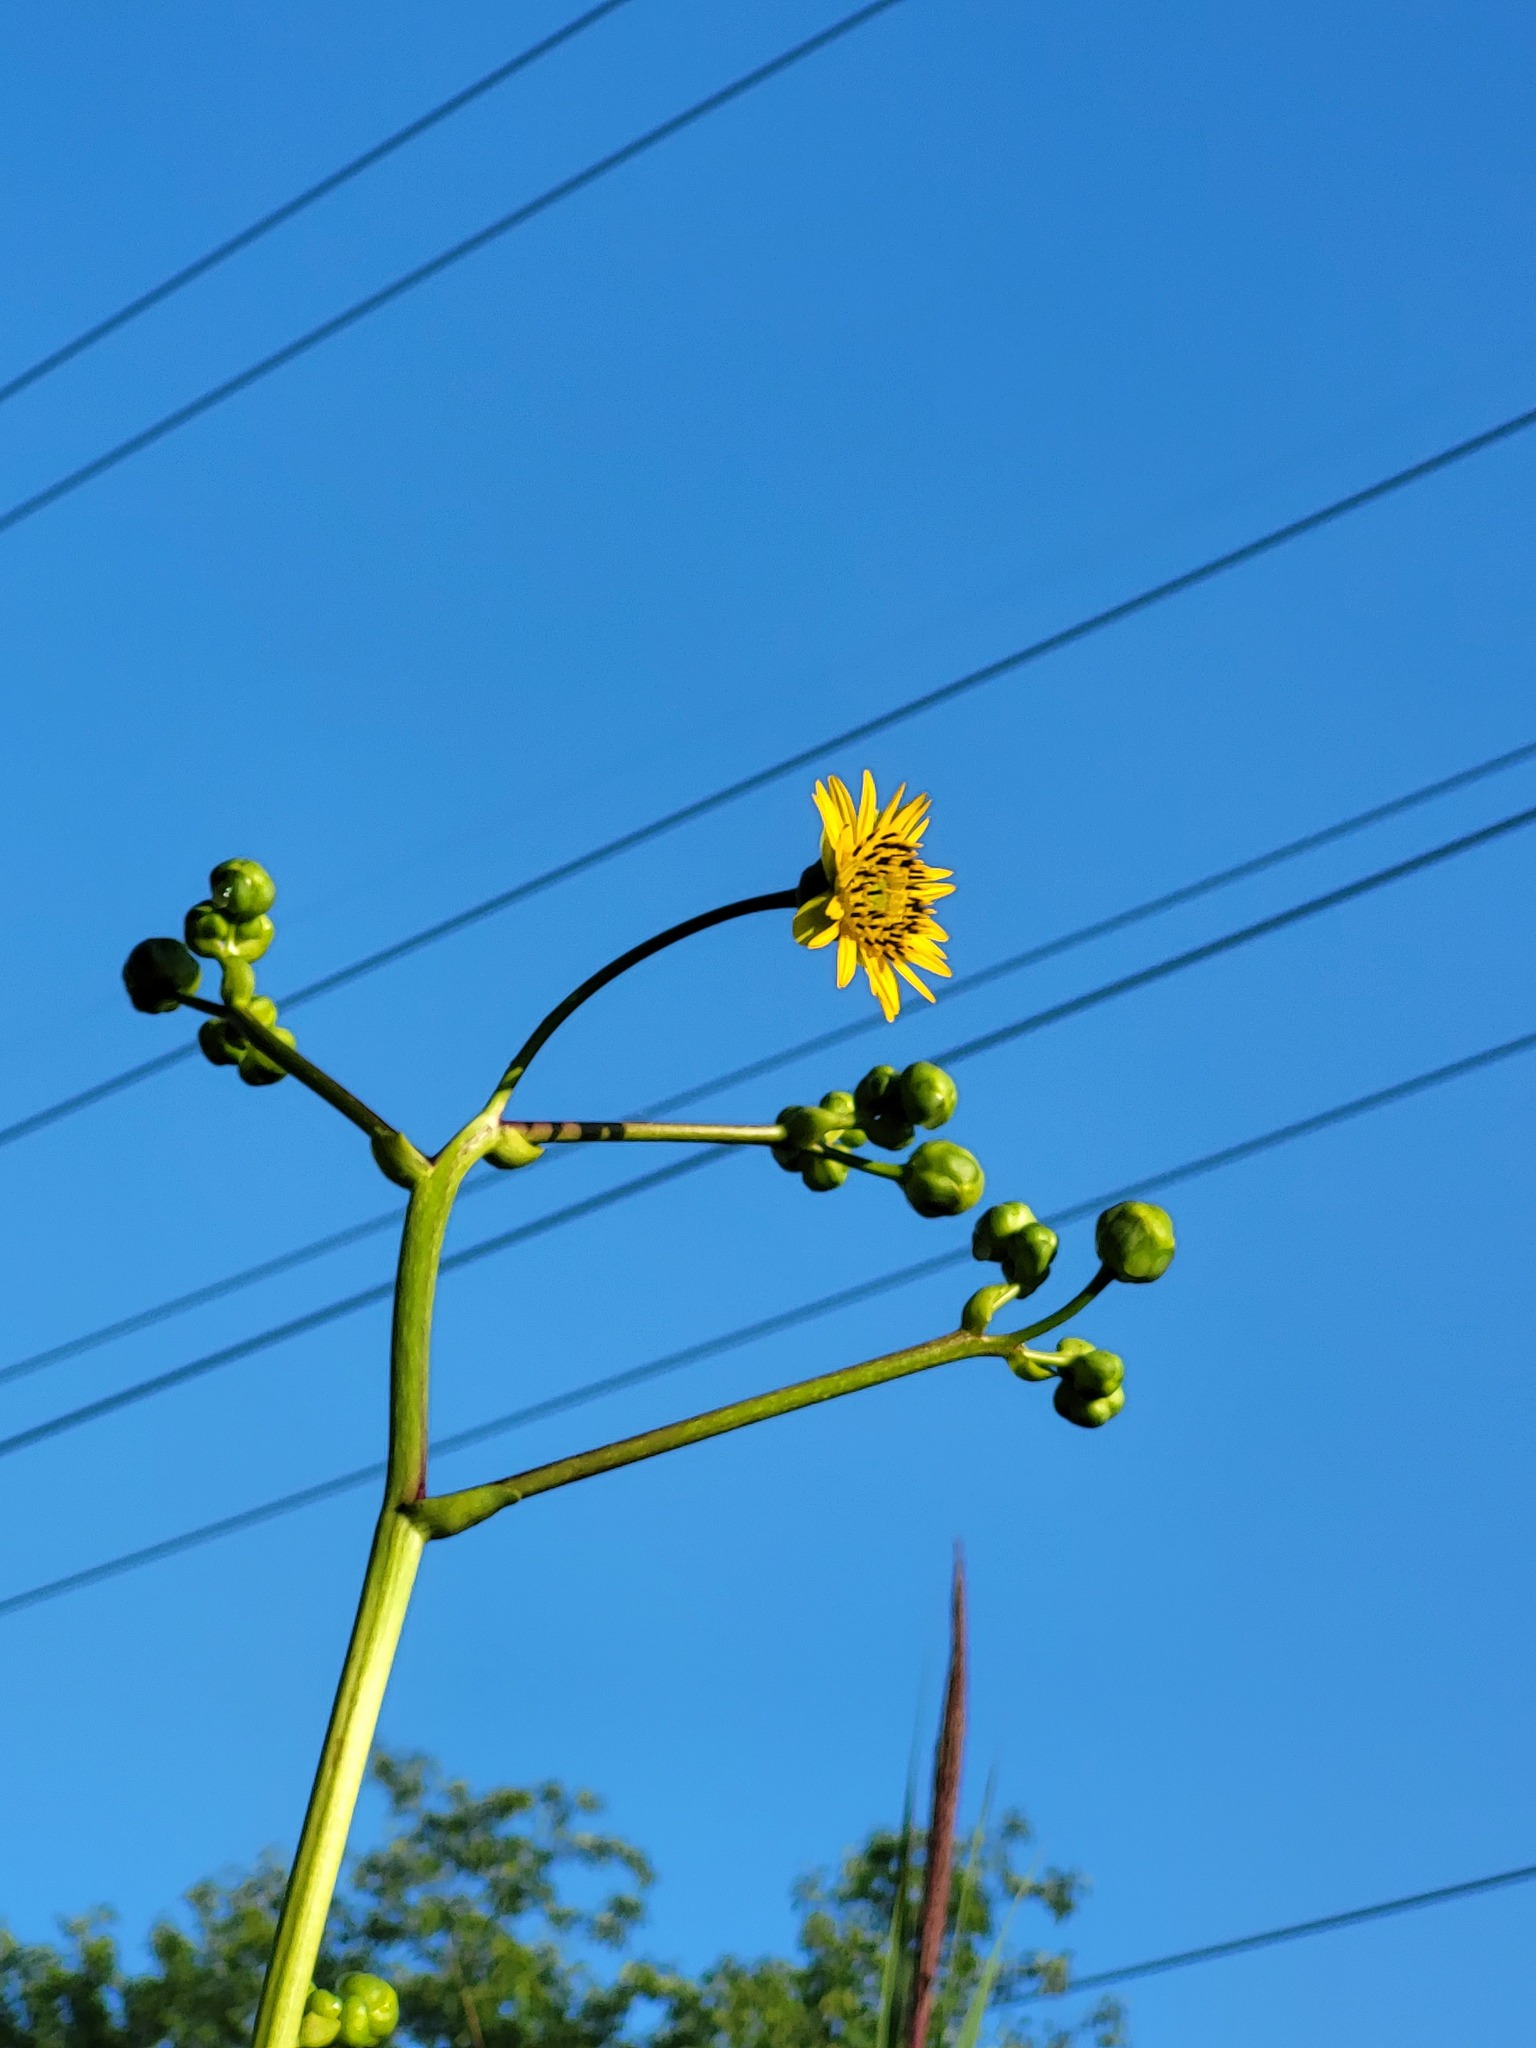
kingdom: Plantae
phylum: Tracheophyta
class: Magnoliopsida
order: Asterales
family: Asteraceae
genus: Silphium
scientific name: Silphium terebinthinaceum
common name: Basal-leaf rosinweed
